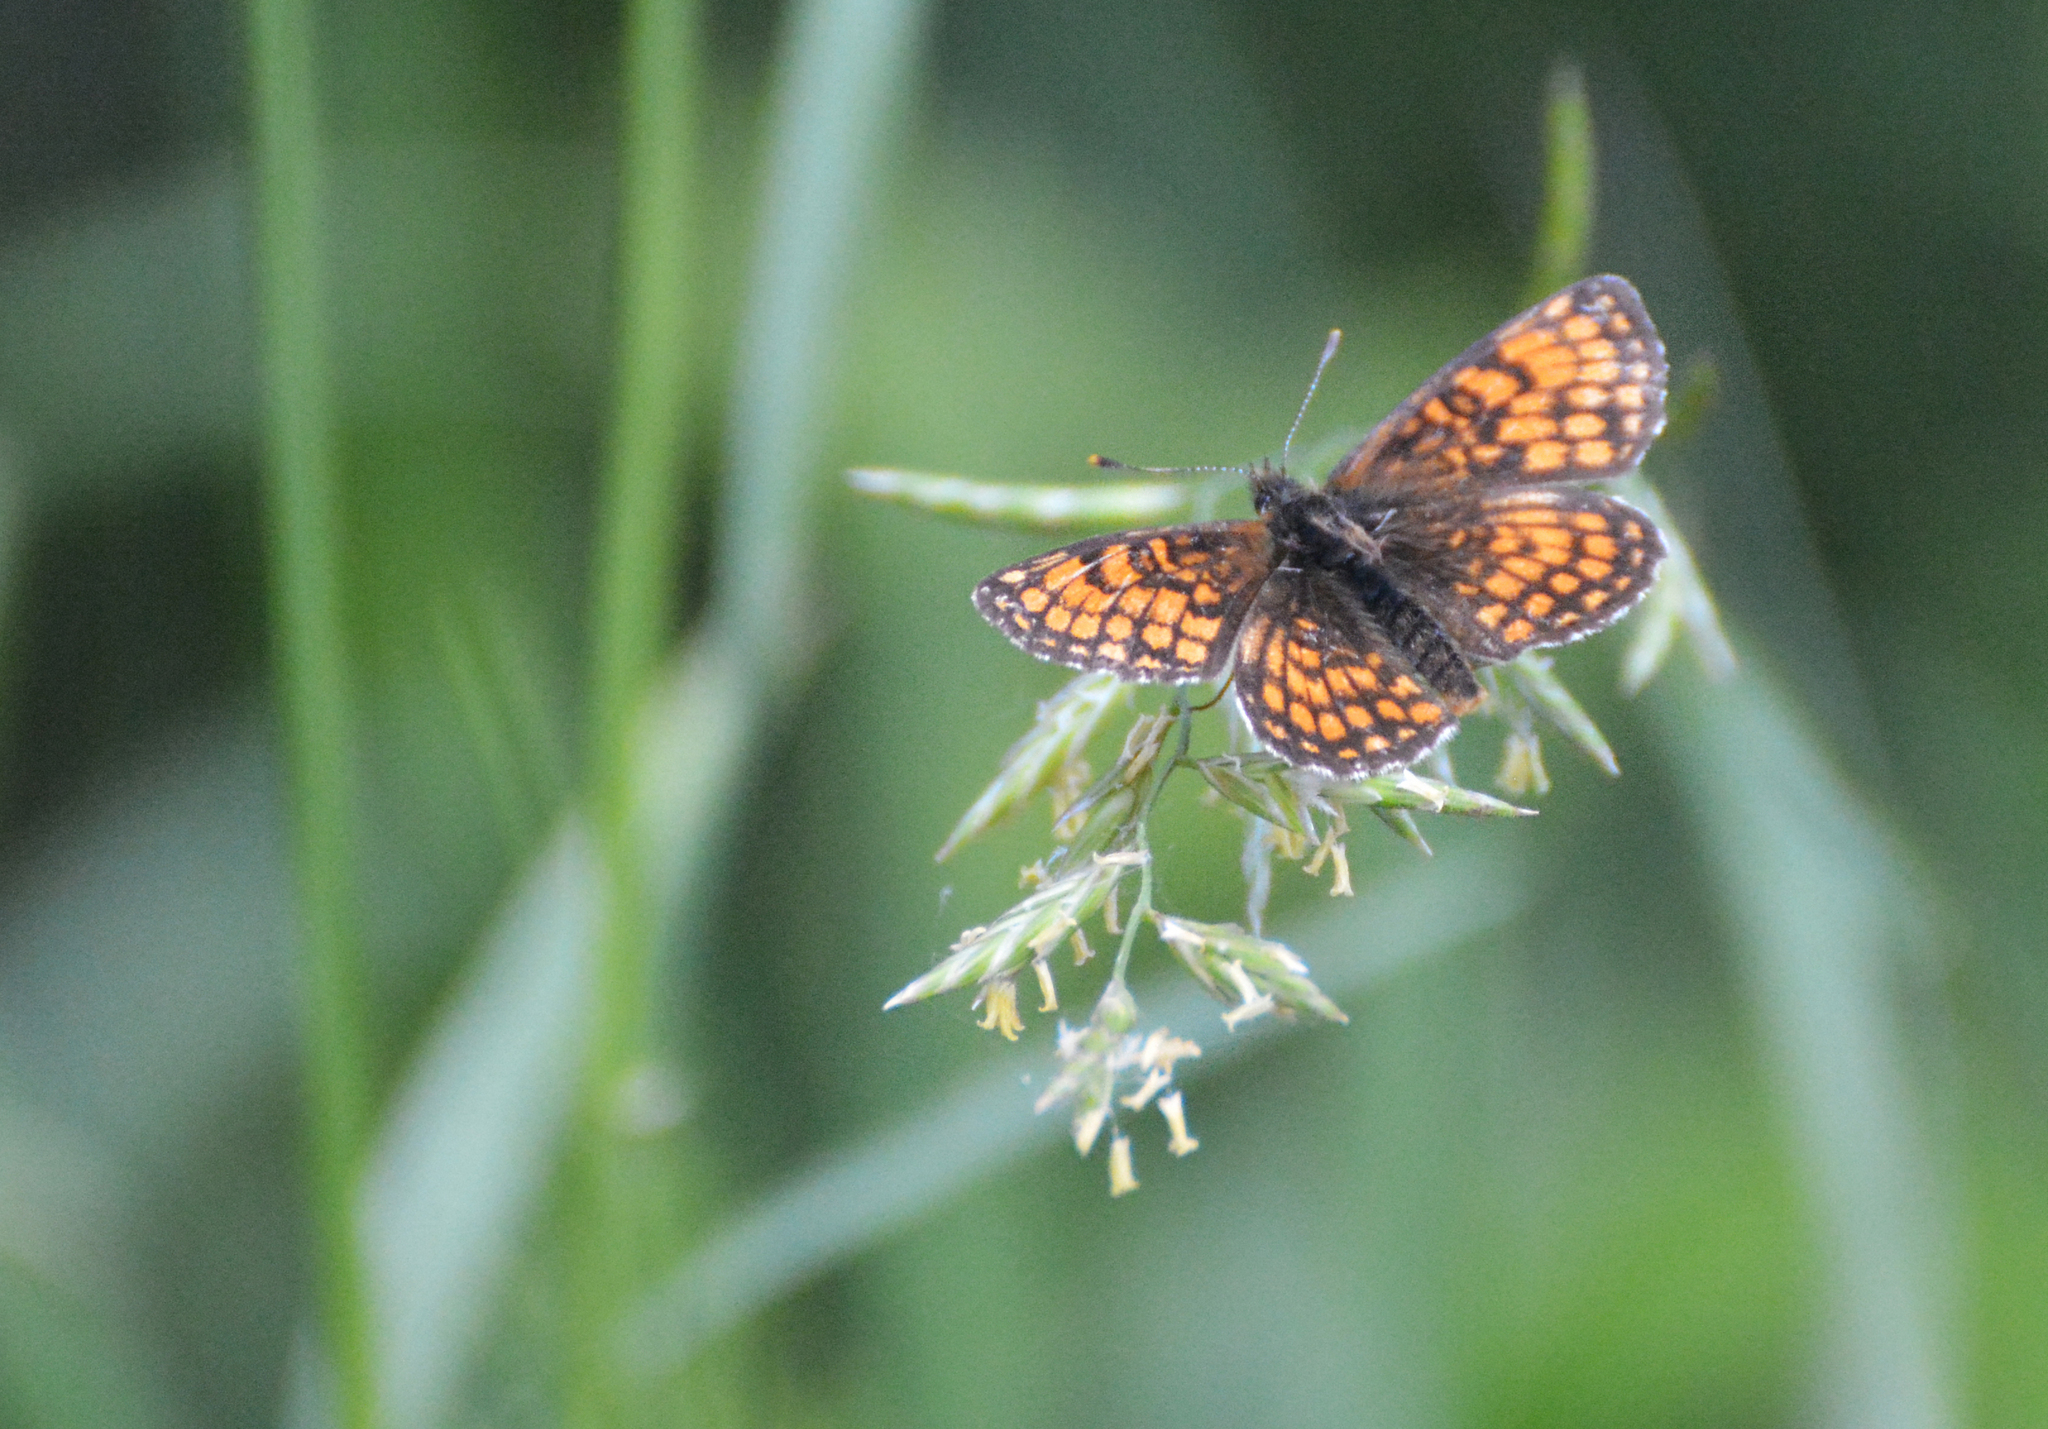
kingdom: Animalia
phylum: Arthropoda
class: Insecta
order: Lepidoptera
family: Nymphalidae
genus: Melitaea
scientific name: Melitaea athalia
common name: Heath fritillary
